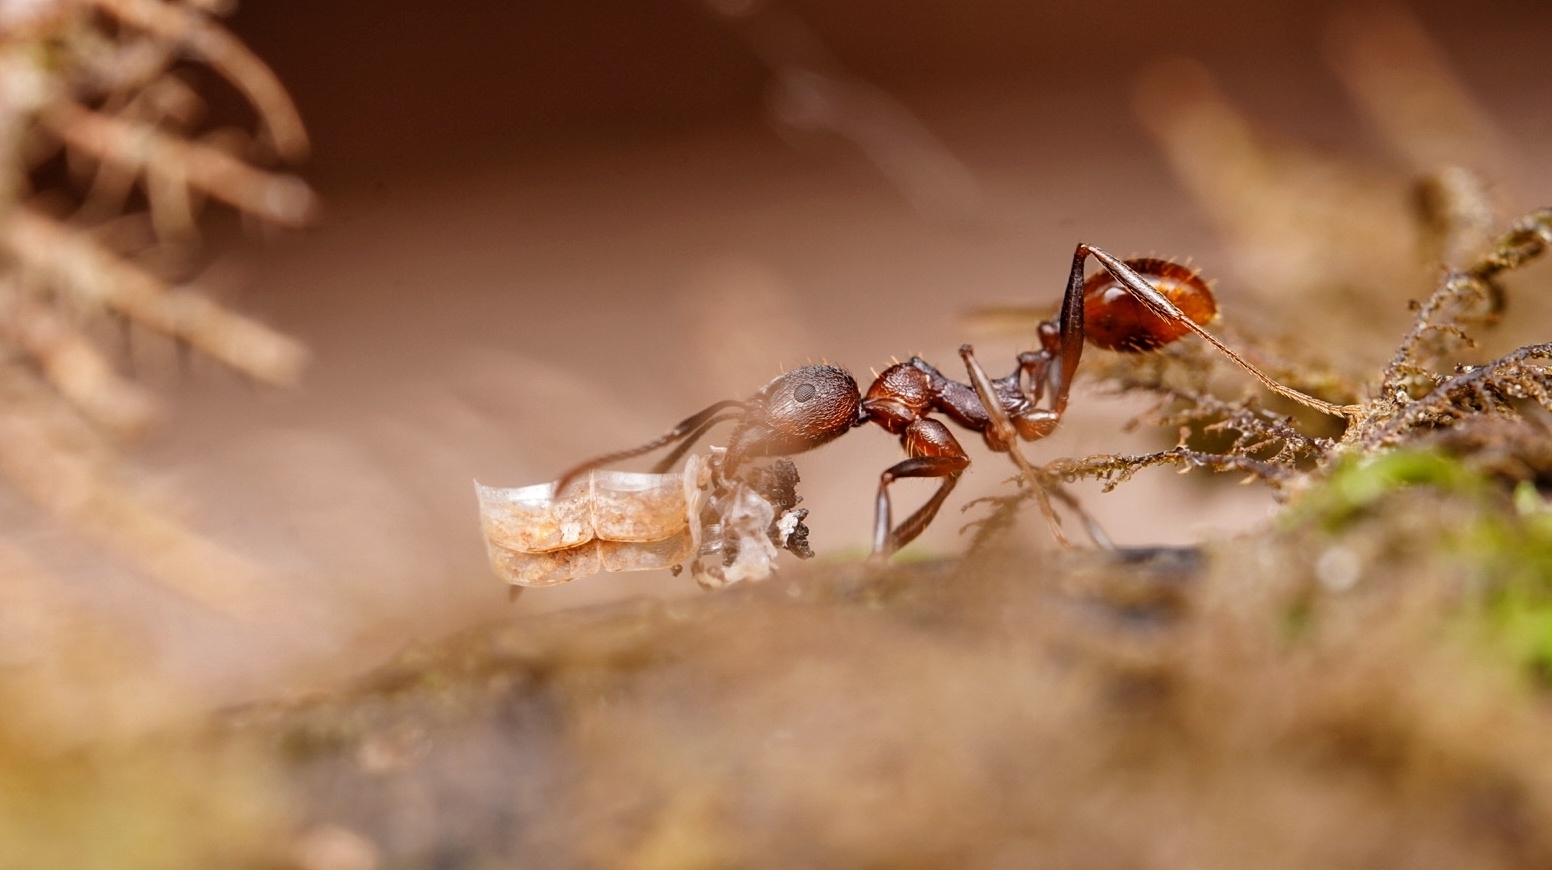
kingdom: Animalia
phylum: Arthropoda
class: Insecta
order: Hymenoptera
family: Formicidae
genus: Aphaenogaster
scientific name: Aphaenogaster fulva
